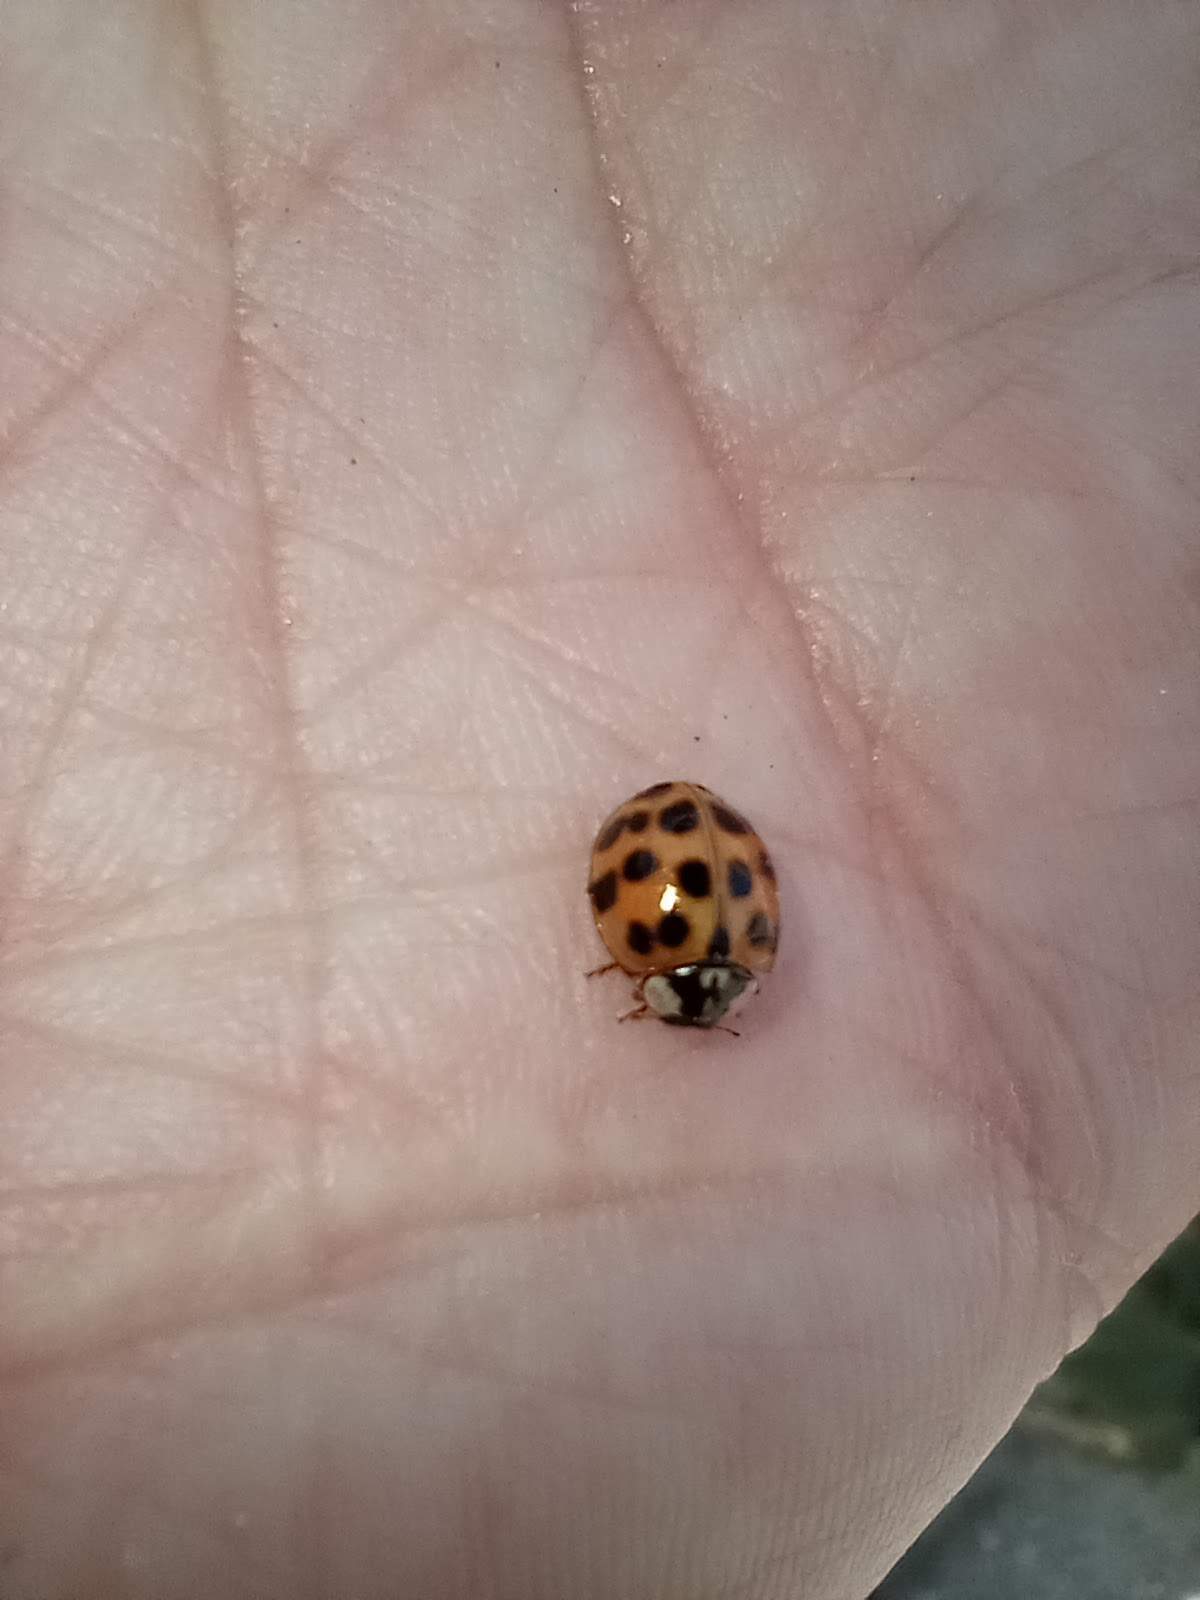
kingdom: Animalia
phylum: Arthropoda
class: Insecta
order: Coleoptera
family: Coccinellidae
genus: Harmonia
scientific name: Harmonia axyridis
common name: Harlequin ladybird
